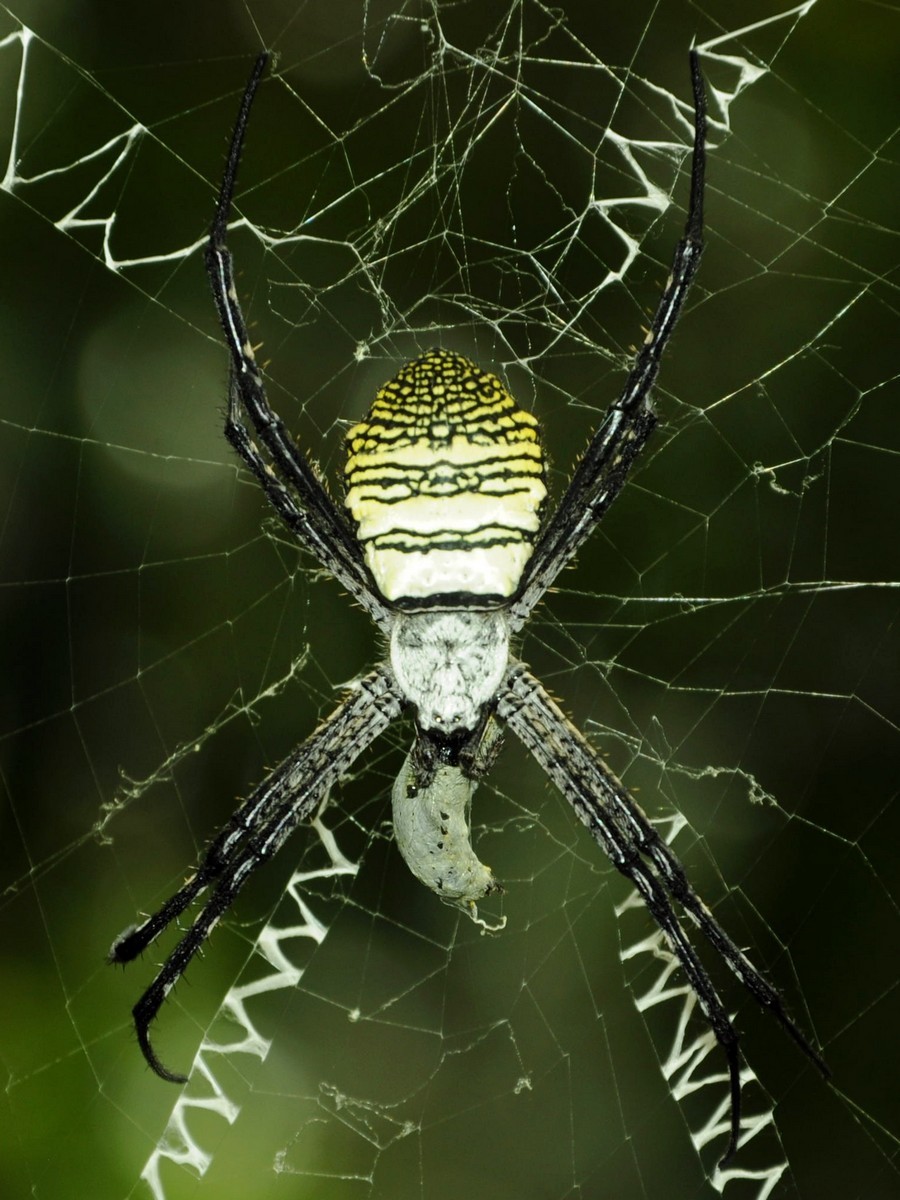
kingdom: Animalia
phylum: Arthropoda
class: Arachnida
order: Araneae
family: Araneidae
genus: Argiope
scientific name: Argiope aemula
